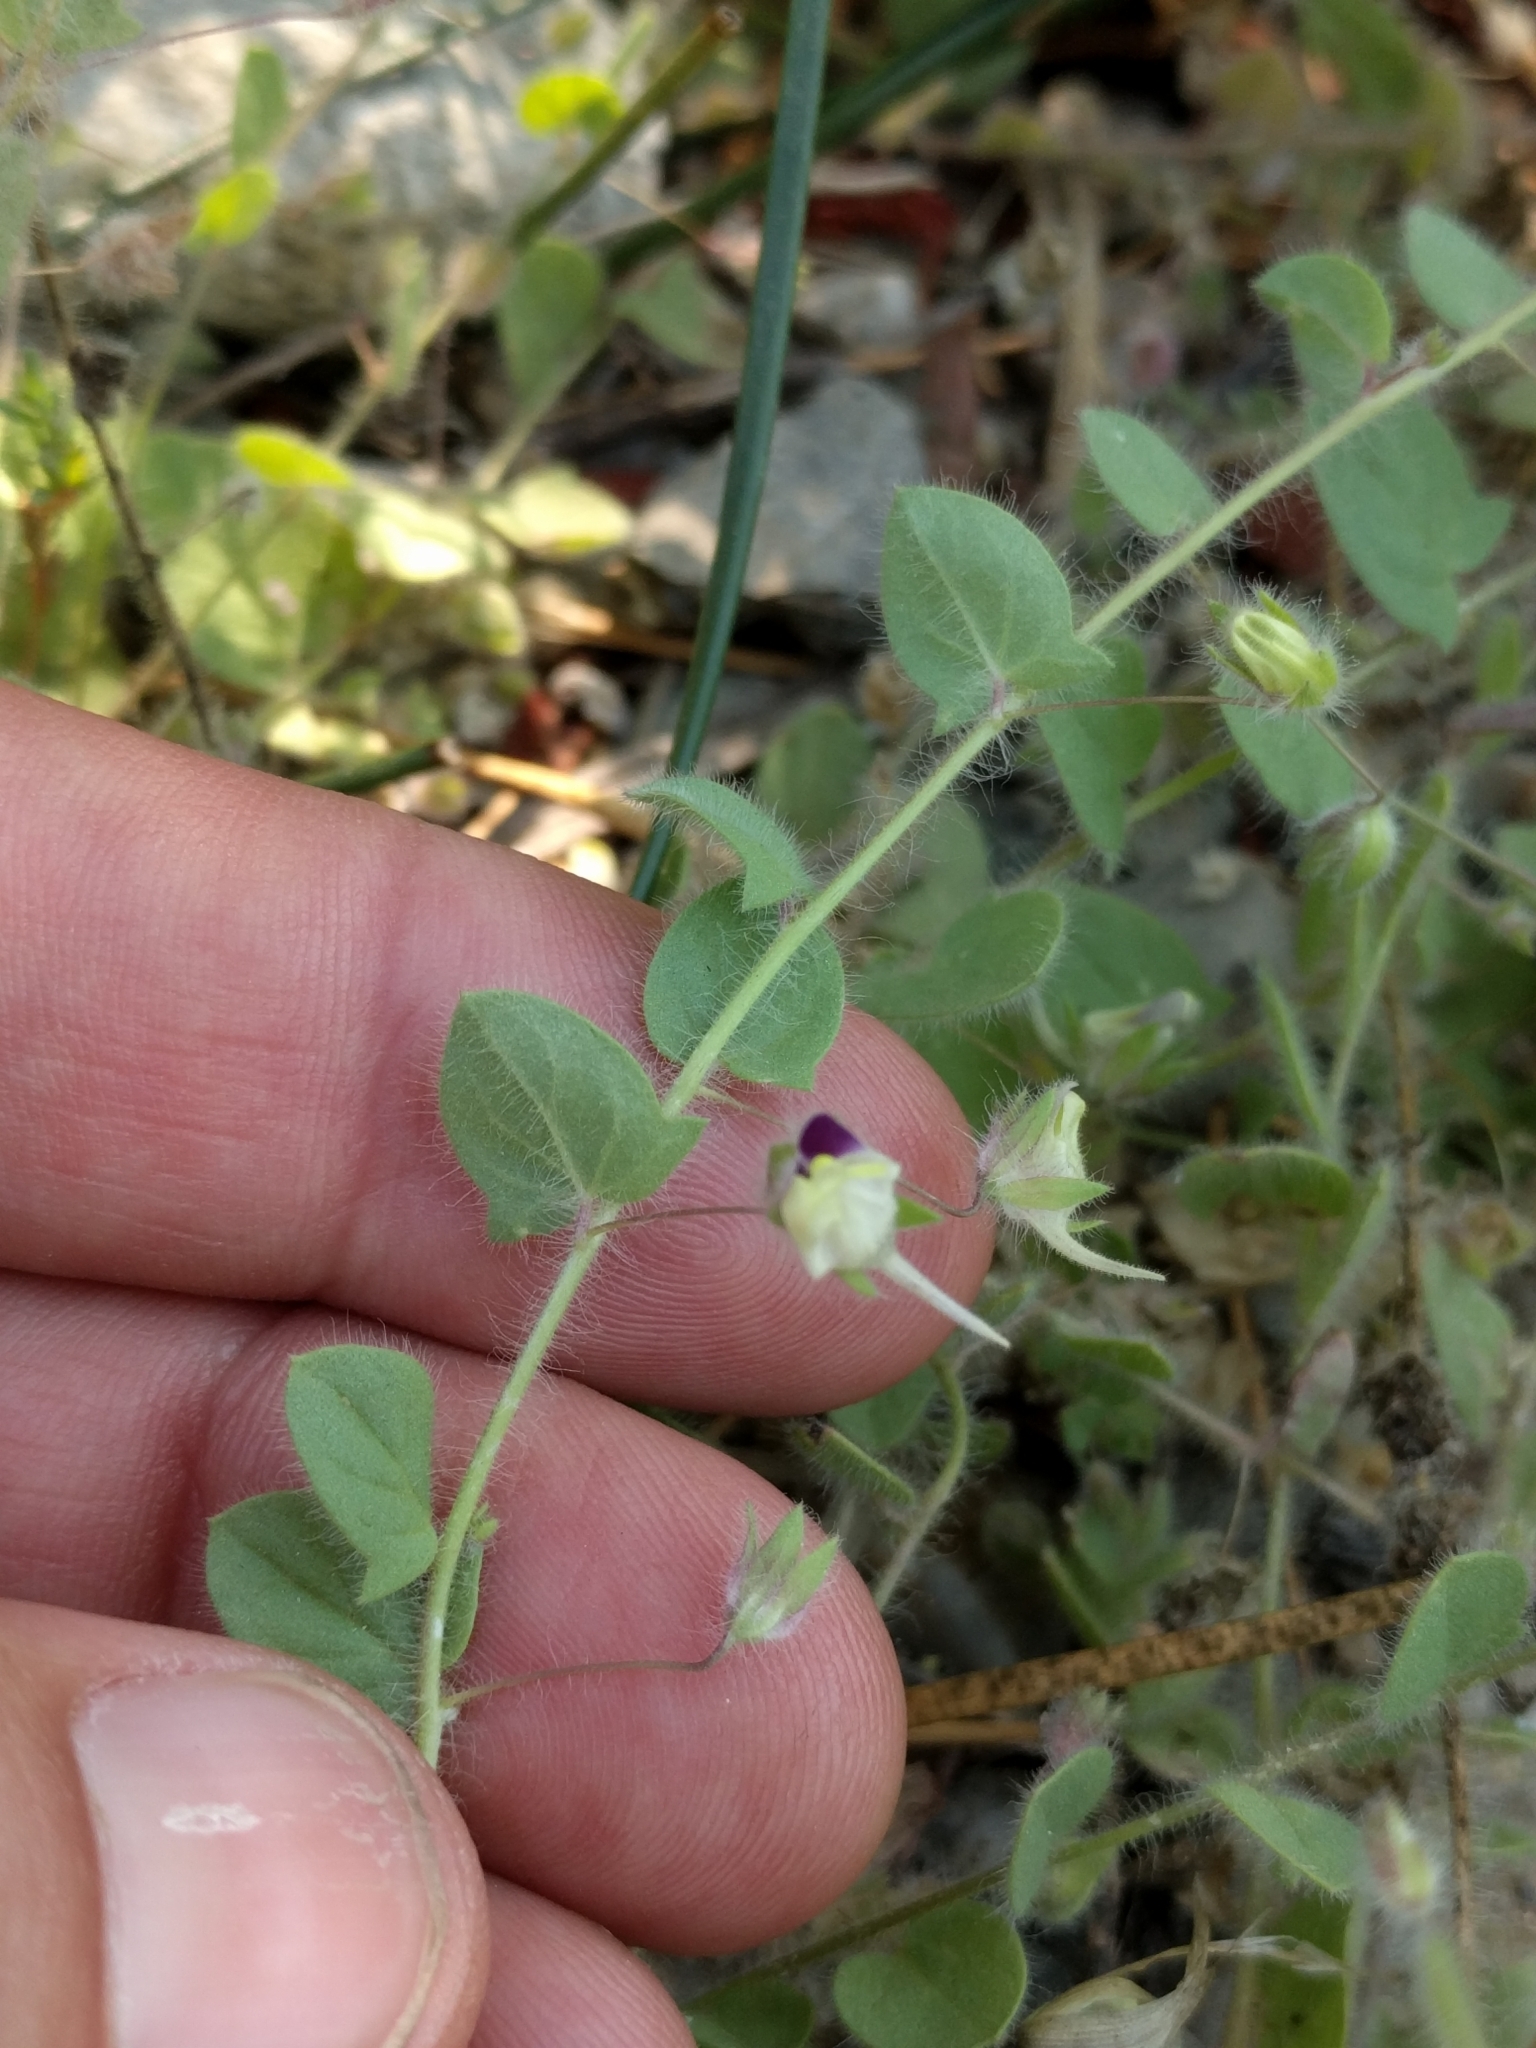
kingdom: Plantae
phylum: Tracheophyta
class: Magnoliopsida
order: Lamiales
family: Plantaginaceae
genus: Kickxia
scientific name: Kickxia elatine
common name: Sharp-leaved fluellen
